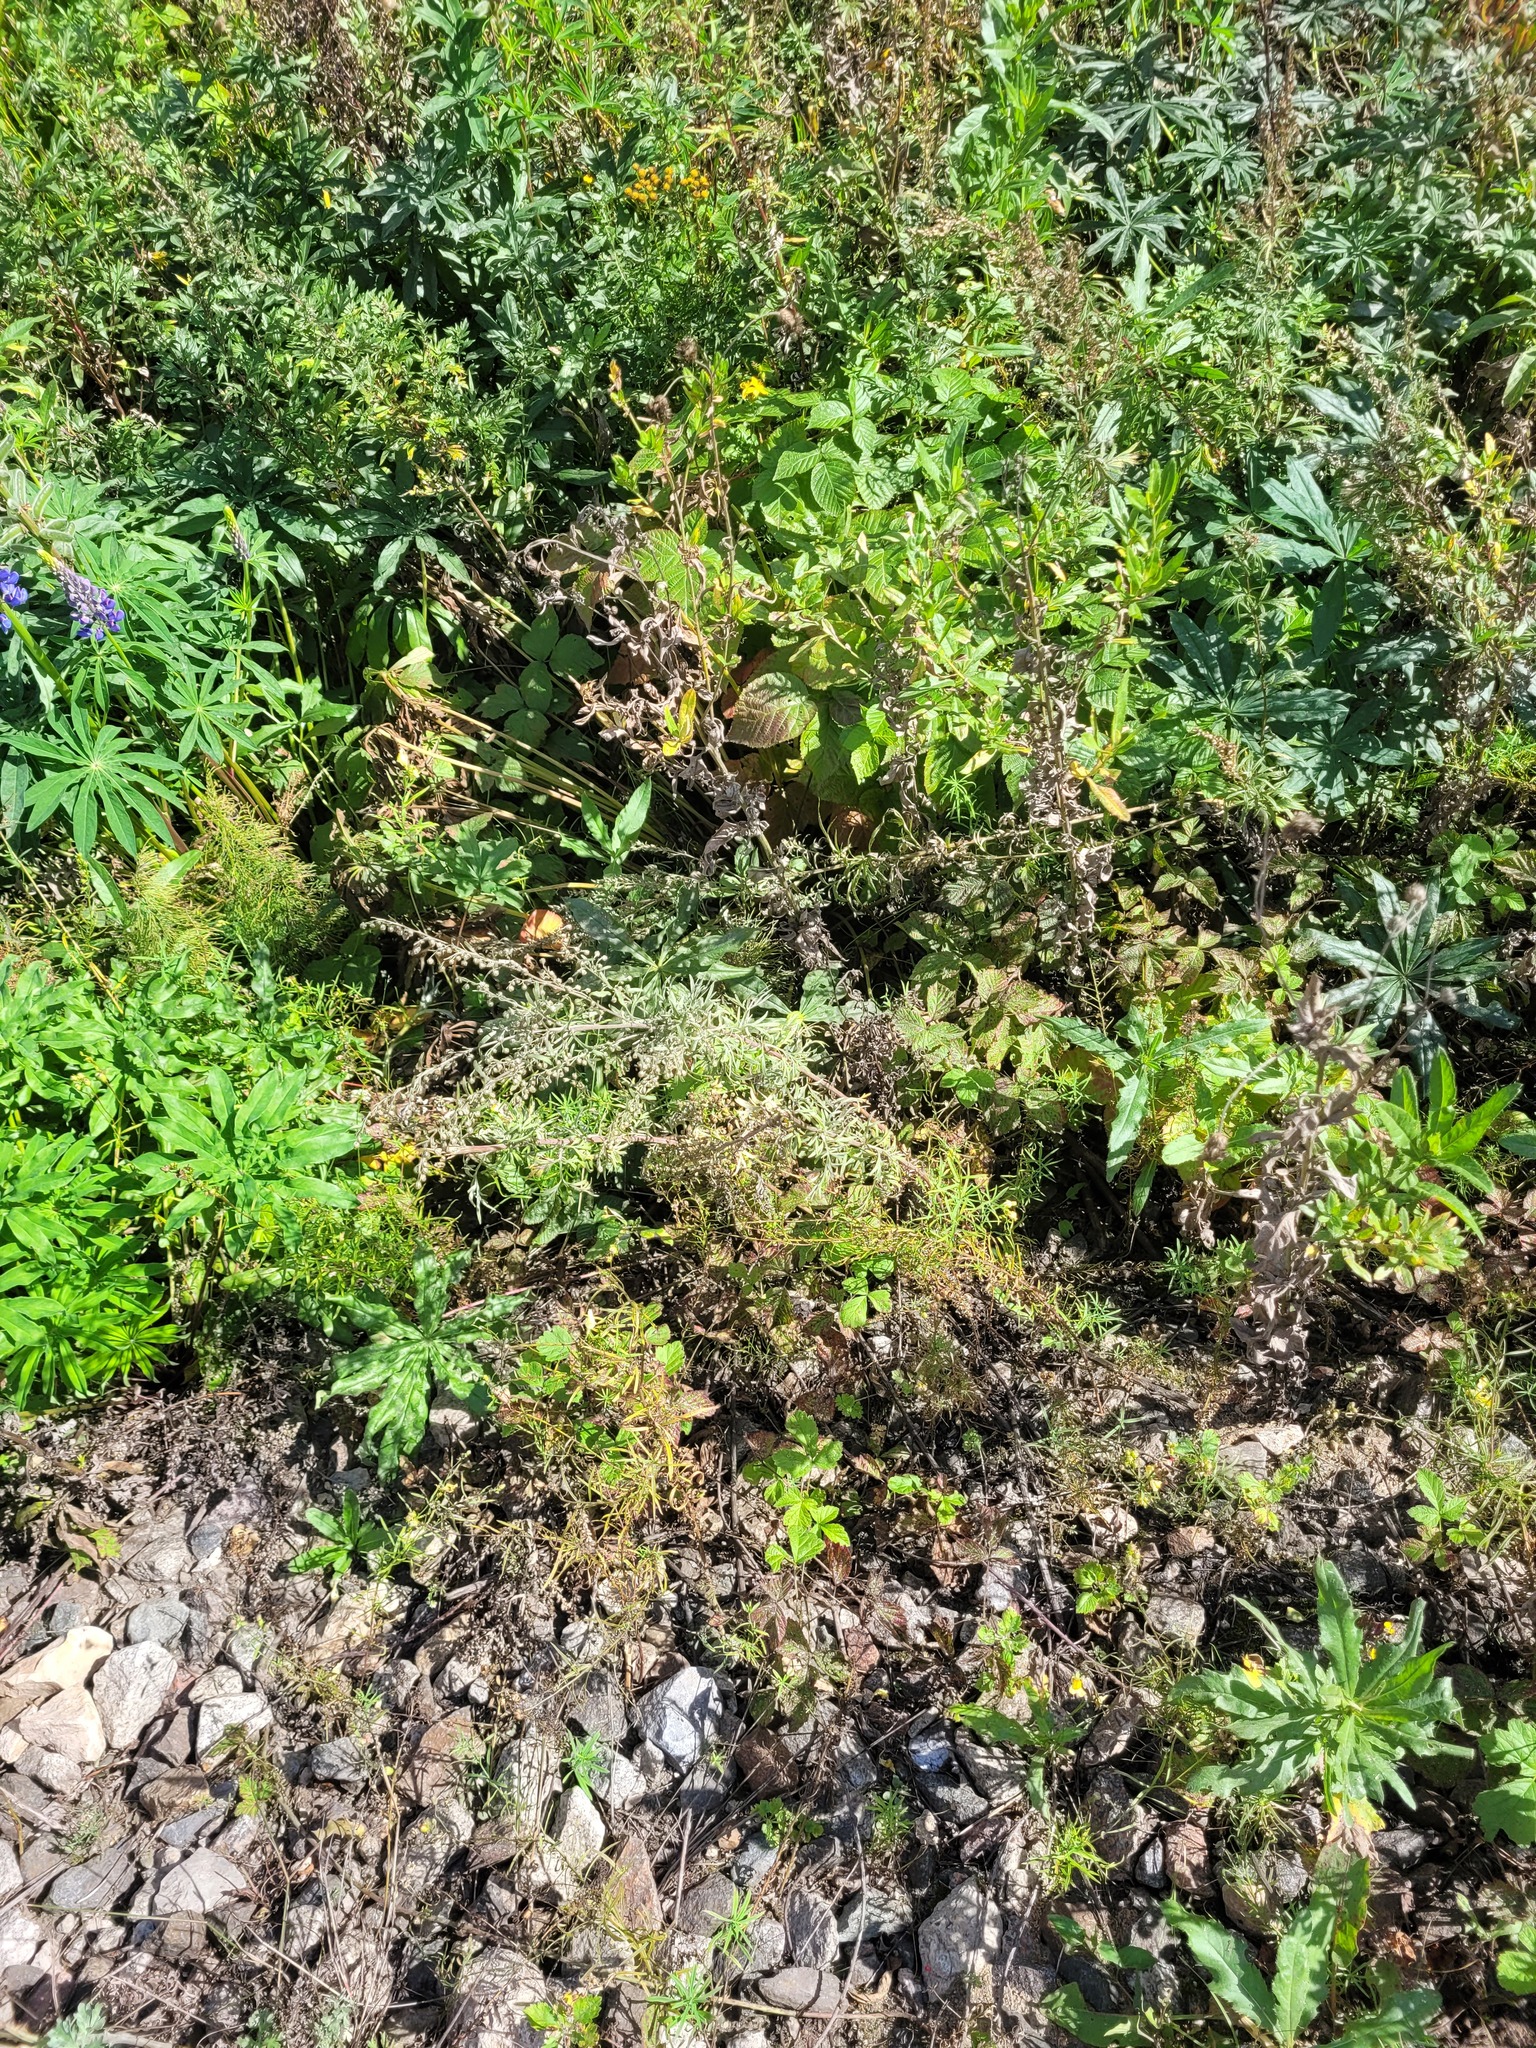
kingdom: Plantae
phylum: Tracheophyta
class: Magnoliopsida
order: Asterales
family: Asteraceae
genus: Artemisia
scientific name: Artemisia absinthium
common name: Wormwood
